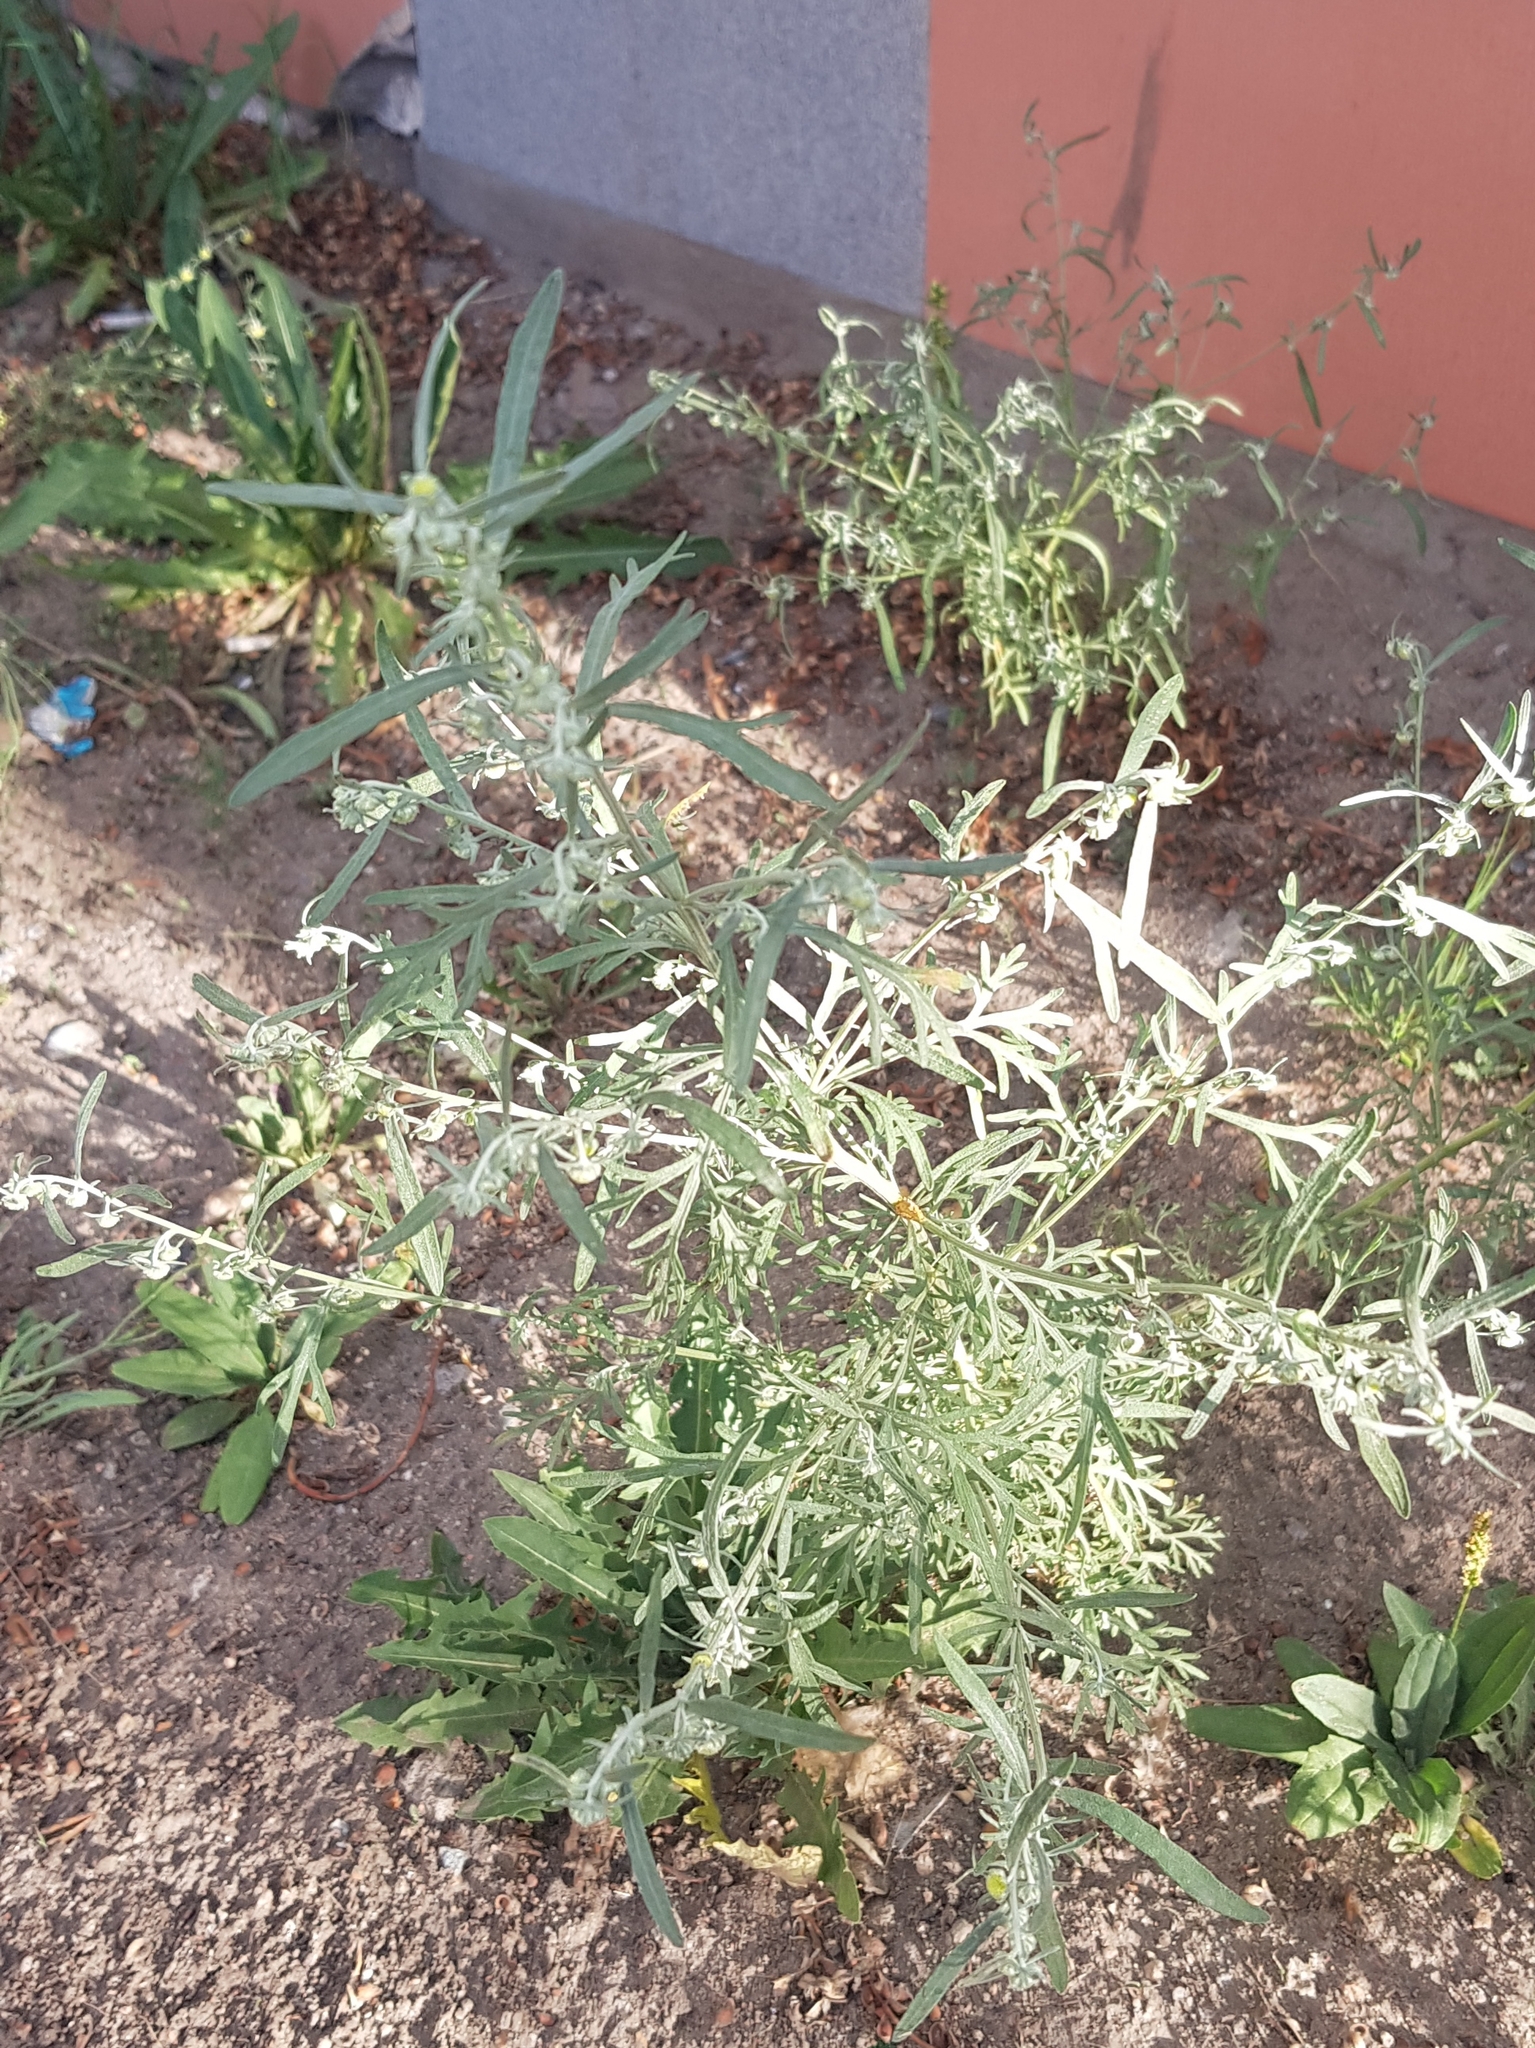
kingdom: Plantae
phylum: Tracheophyta
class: Magnoliopsida
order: Asterales
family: Asteraceae
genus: Artemisia
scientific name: Artemisia sieversiana
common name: Sieversian wormwood
